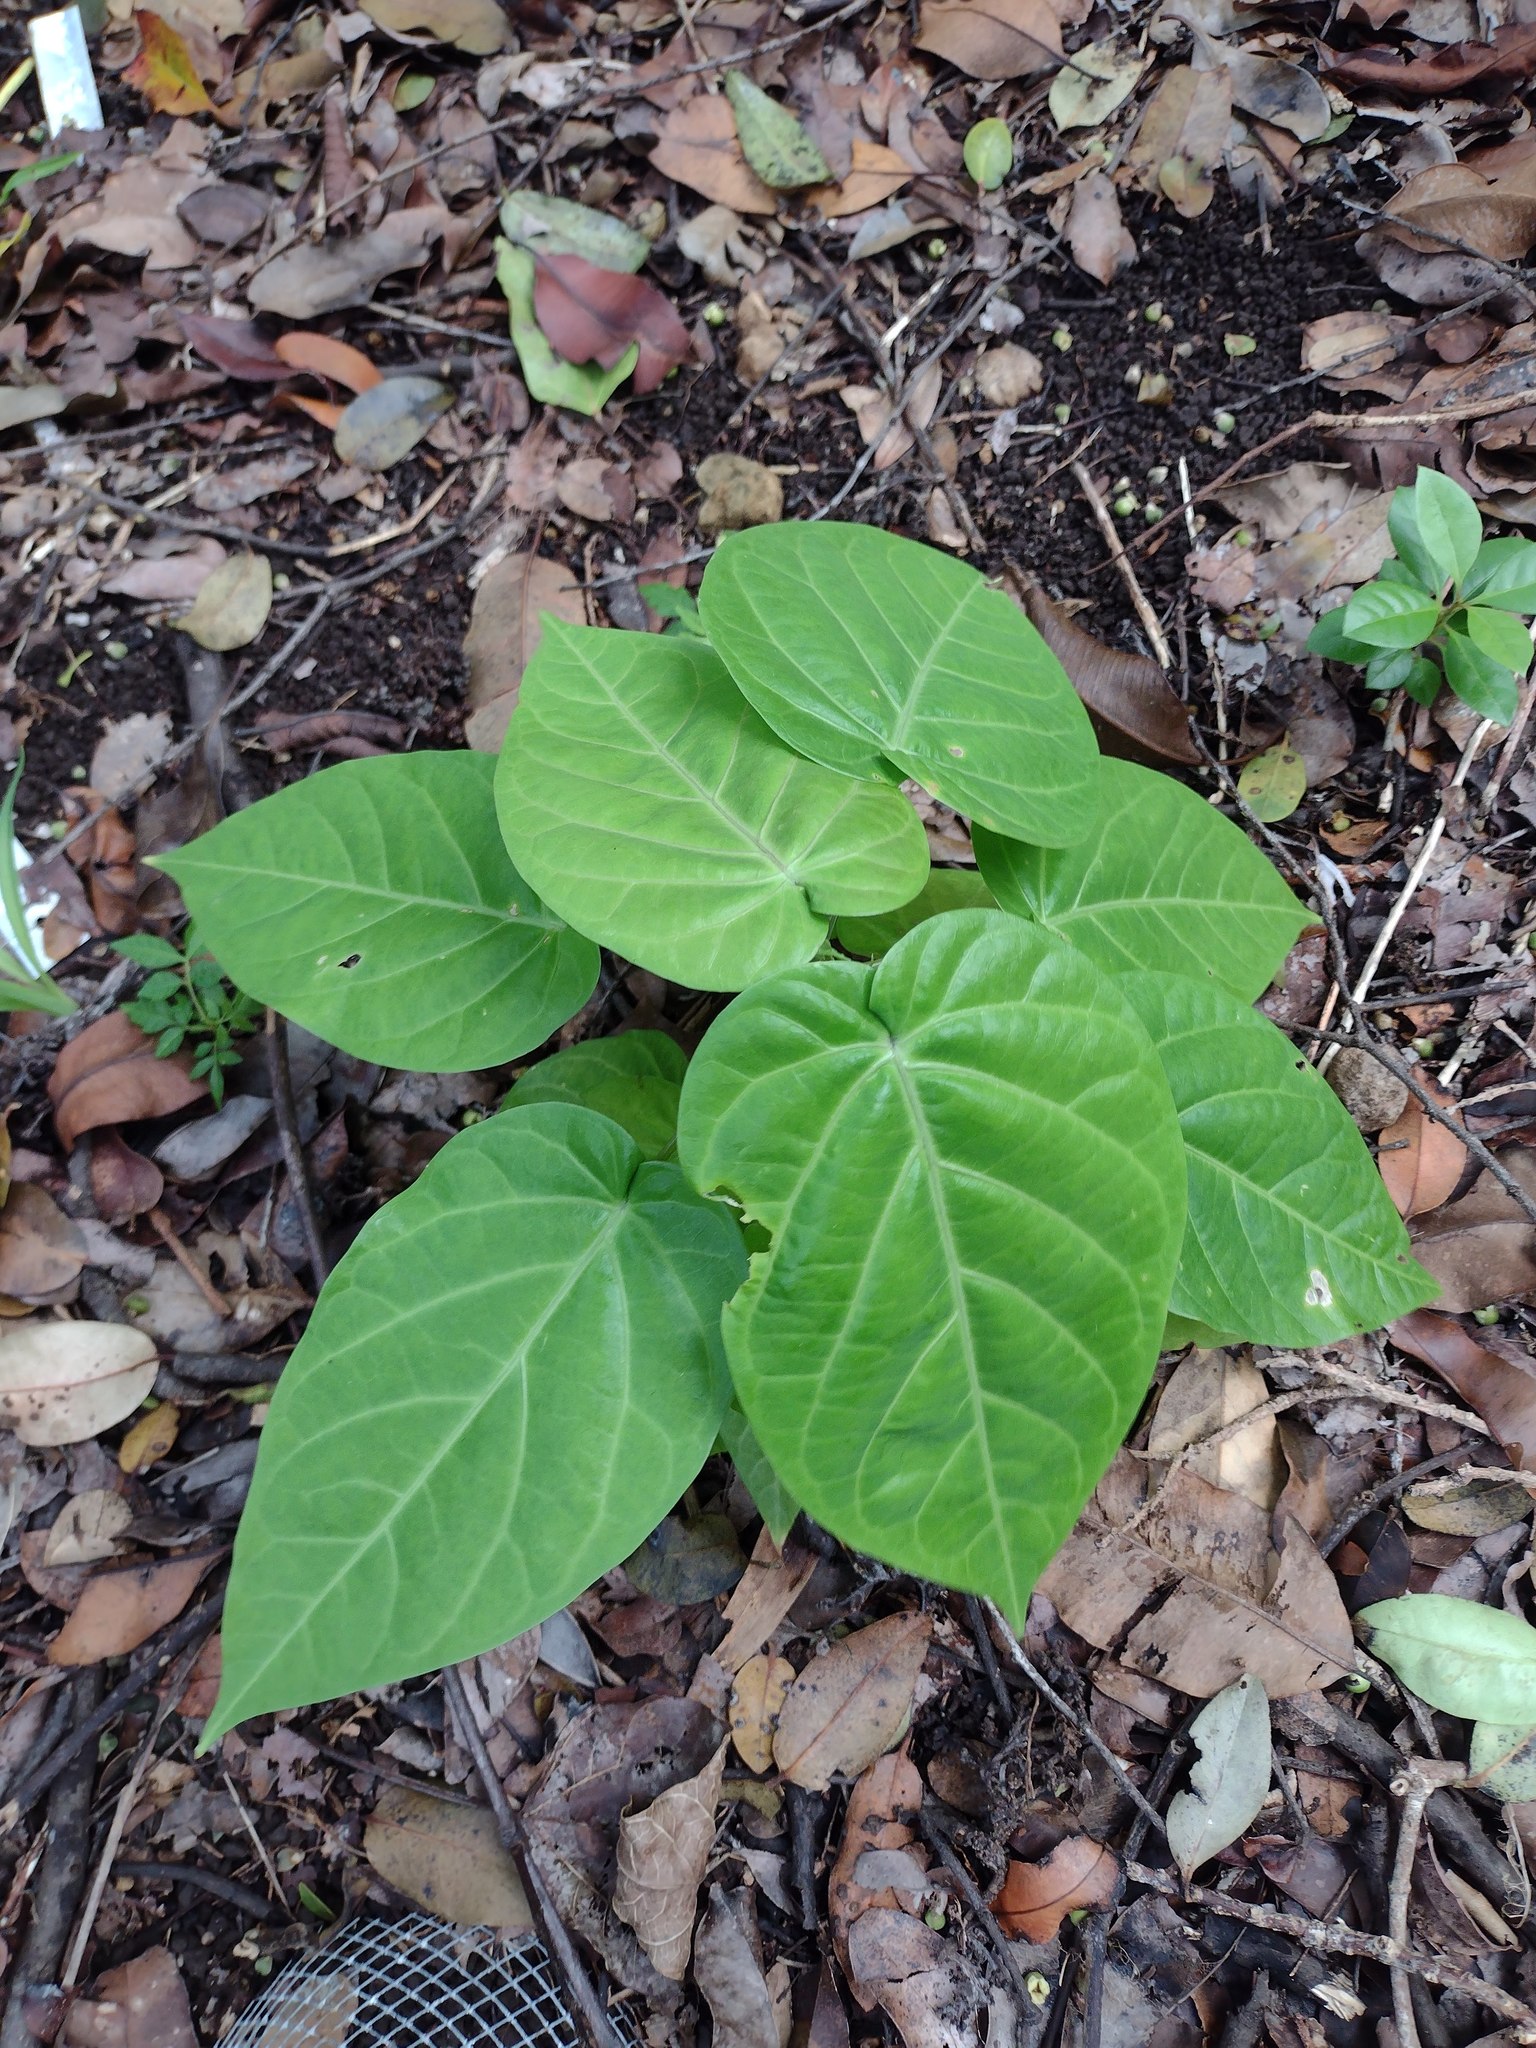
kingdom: Plantae
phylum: Tracheophyta
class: Magnoliopsida
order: Malpighiales
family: Passifloraceae
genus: Passiflora
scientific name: Passiflora ligularis
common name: Sweet granadilla
